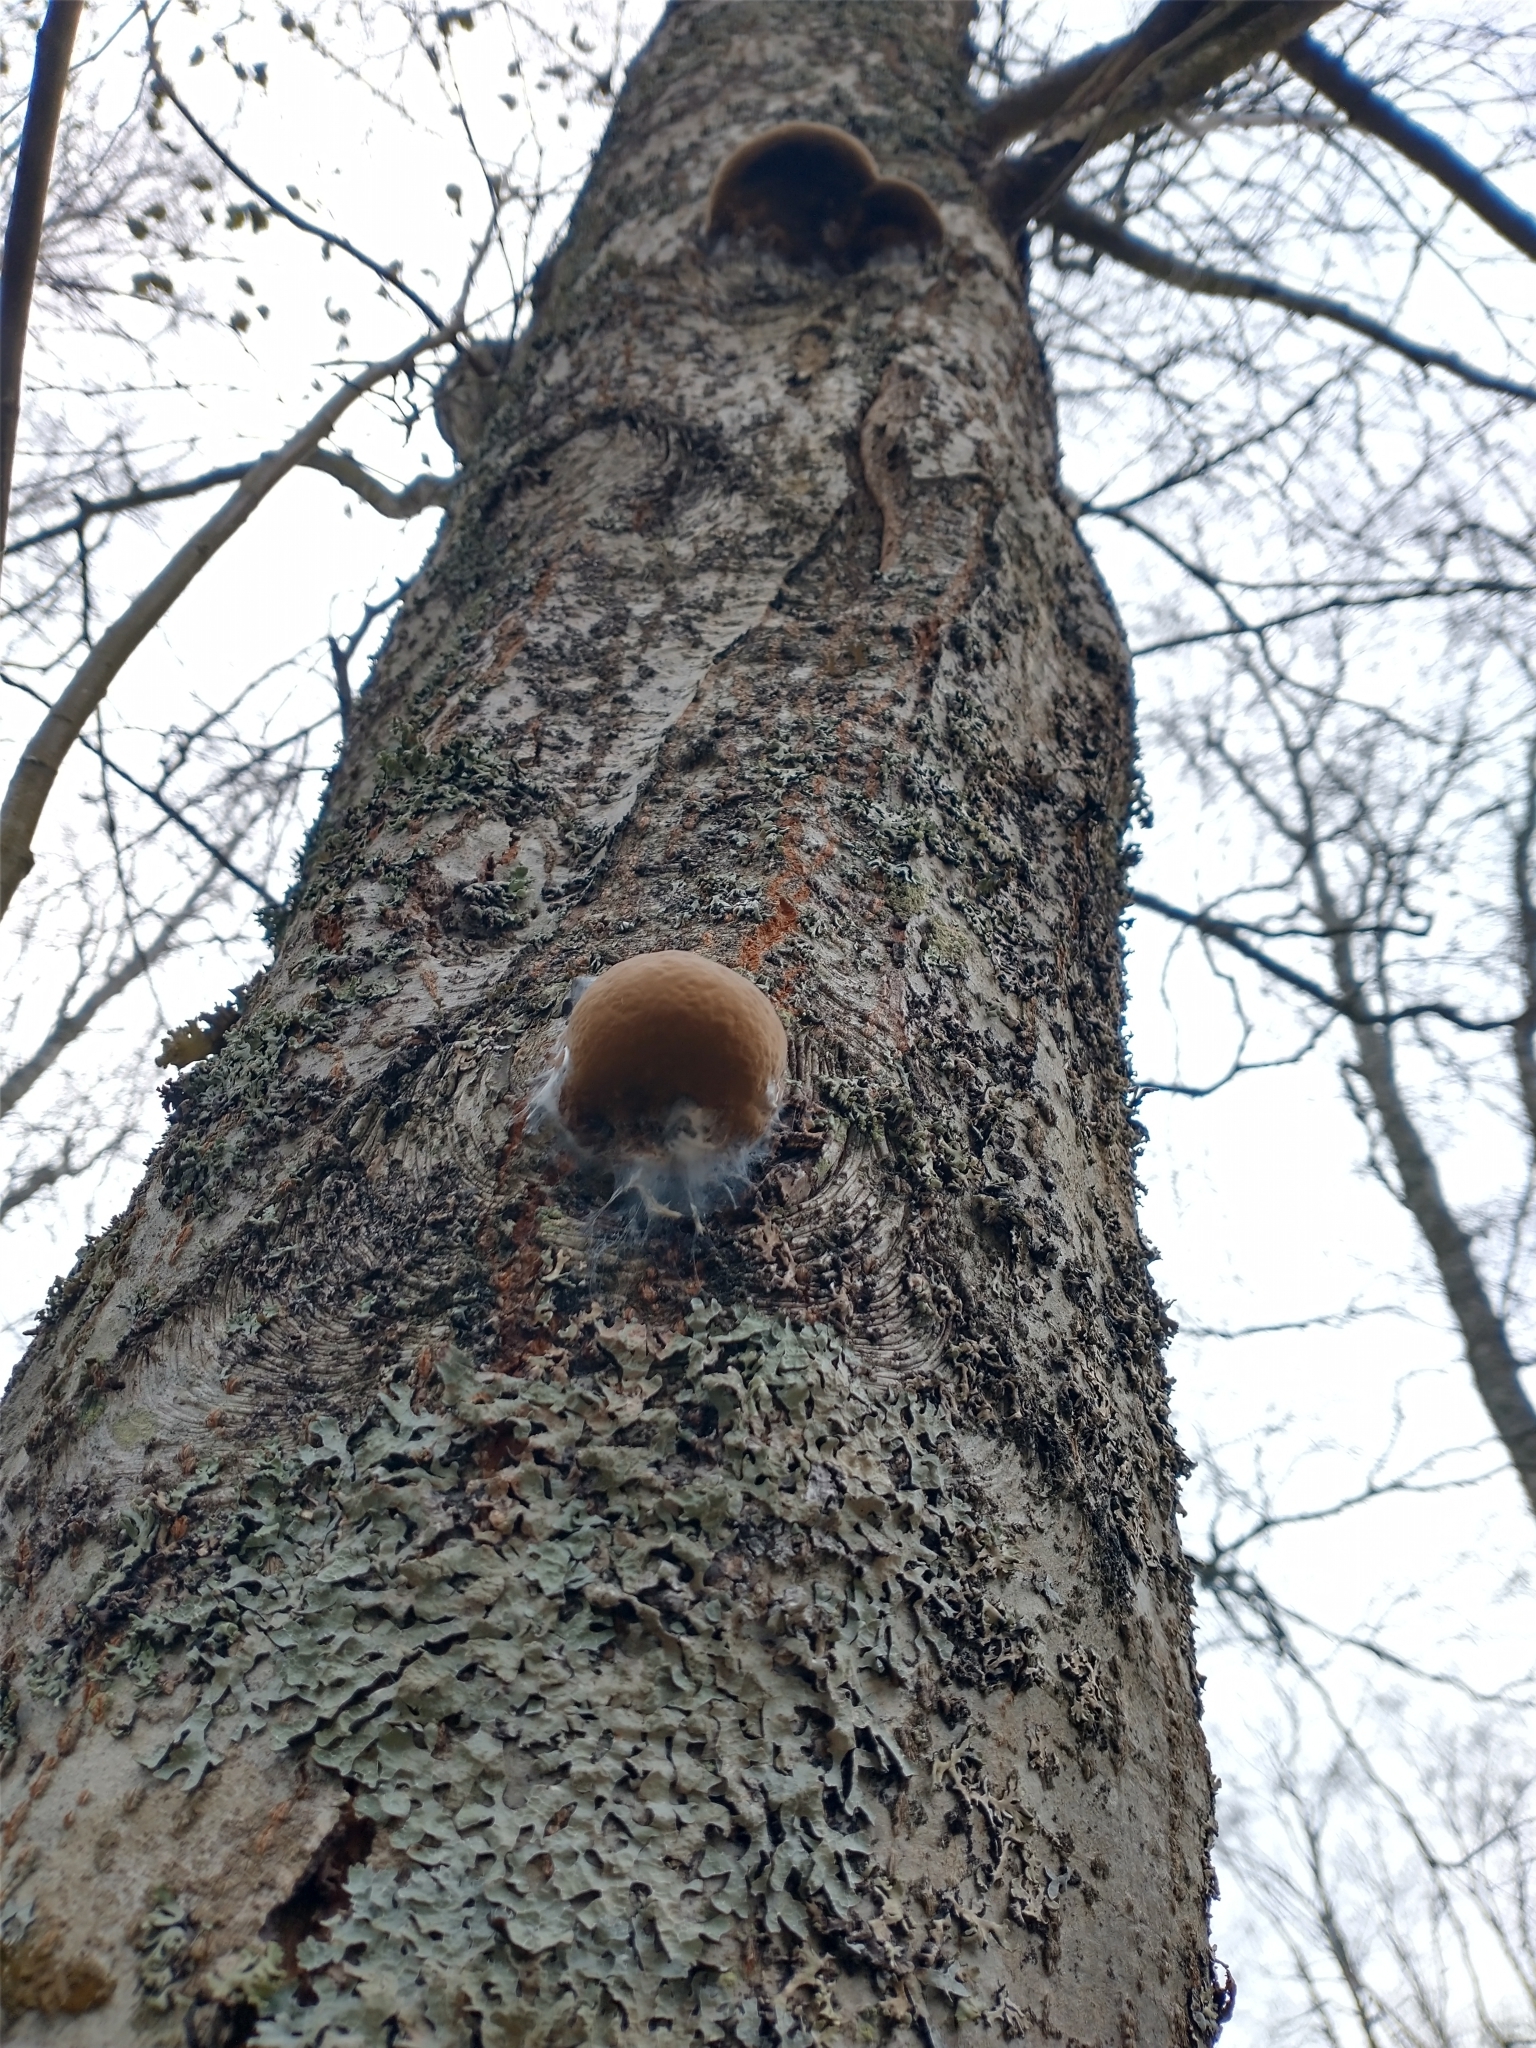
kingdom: Fungi
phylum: Basidiomycota
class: Agaricomycetes
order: Hymenochaetales
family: Hymenochaetaceae
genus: Phellinus
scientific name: Phellinus igniarius
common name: Willow bracket
